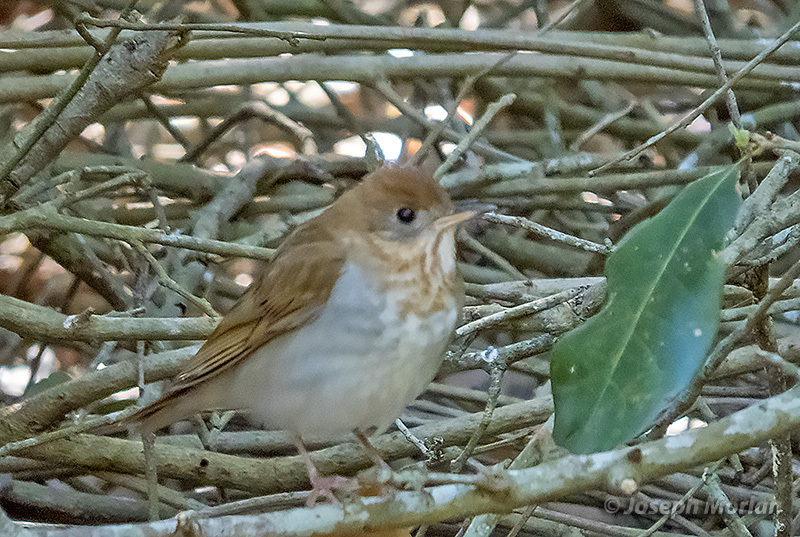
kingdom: Animalia
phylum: Chordata
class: Aves
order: Passeriformes
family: Turdidae
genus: Catharus
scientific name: Catharus fuscescens
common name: Veery
